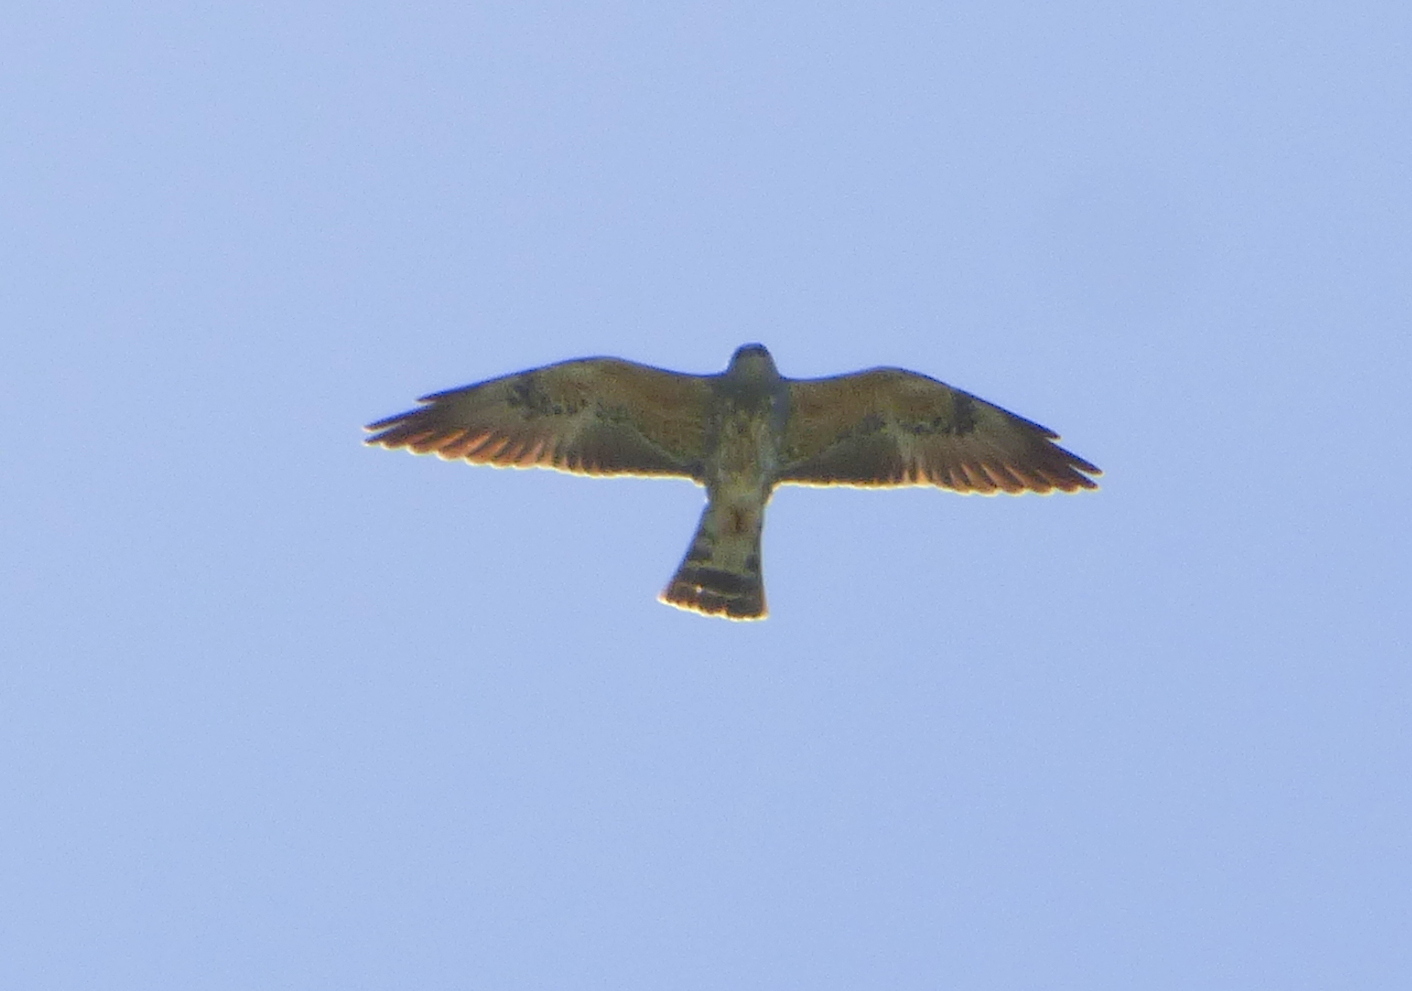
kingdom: Animalia
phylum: Chordata
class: Aves
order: Accipitriformes
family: Accipitridae
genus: Ictinia
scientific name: Ictinia mississippiensis
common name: Mississippi kite
